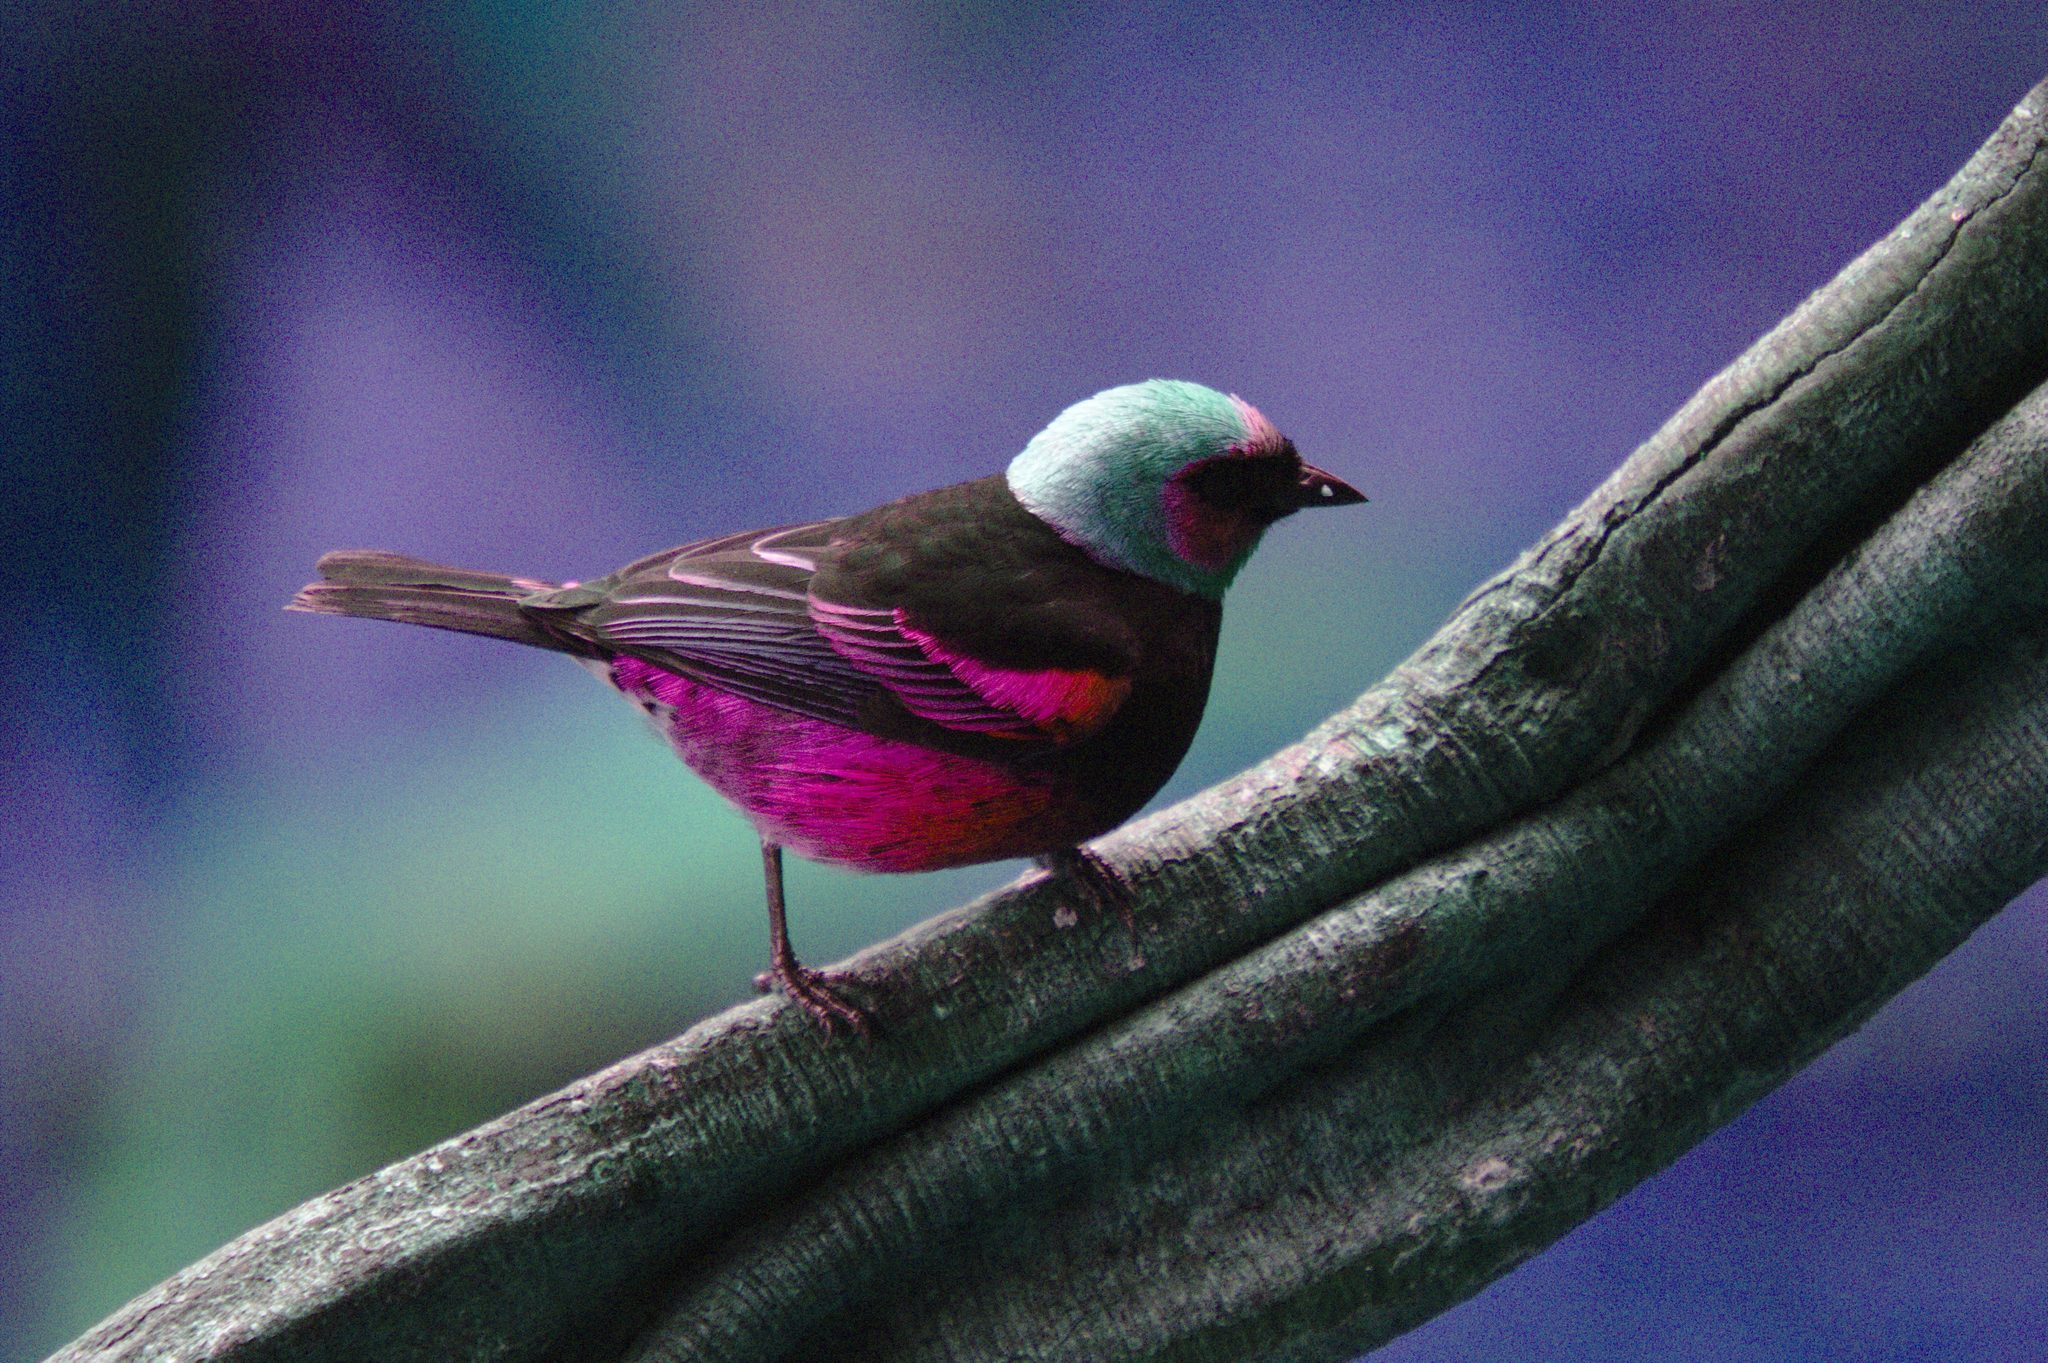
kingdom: Animalia
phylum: Chordata
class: Aves
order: Passeriformes
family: Thraupidae
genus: Stilpnia
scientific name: Stilpnia larvata
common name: Golden-hooded tanager
